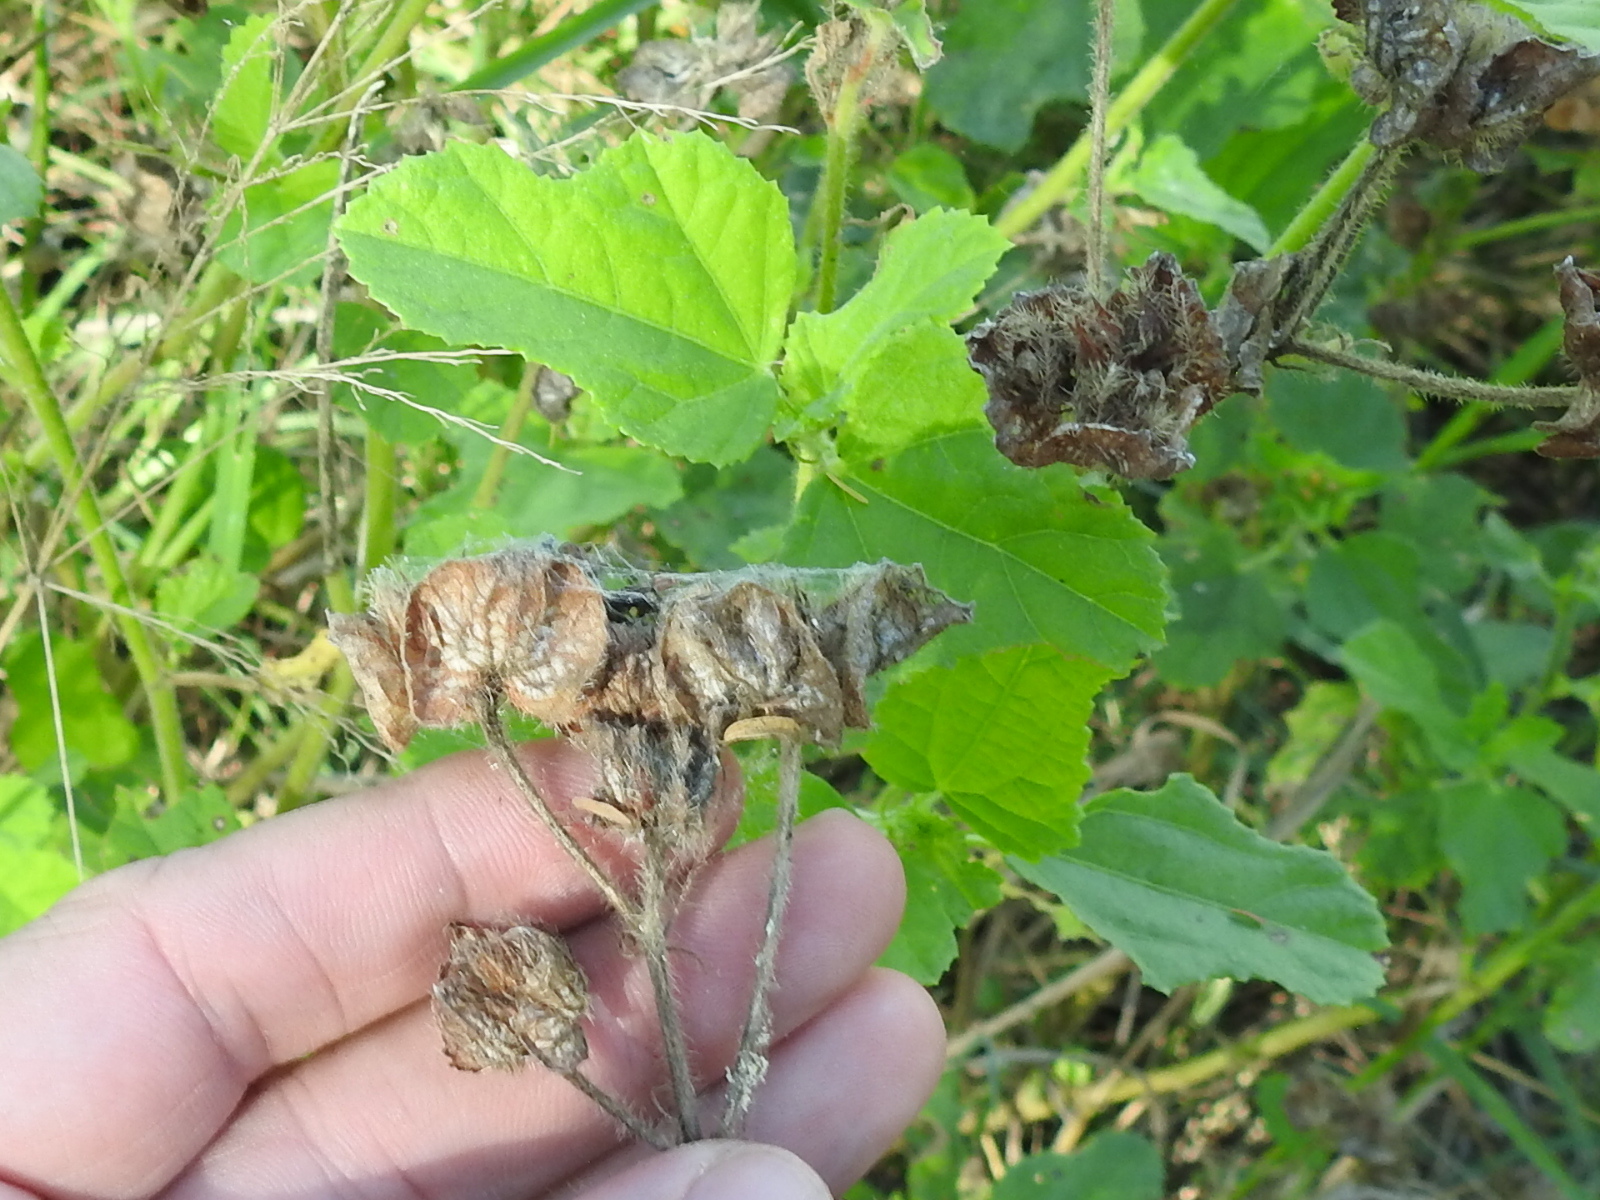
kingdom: Plantae
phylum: Tracheophyta
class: Magnoliopsida
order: Malvales
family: Malvaceae
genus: Malachra
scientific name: Malachra capitata
